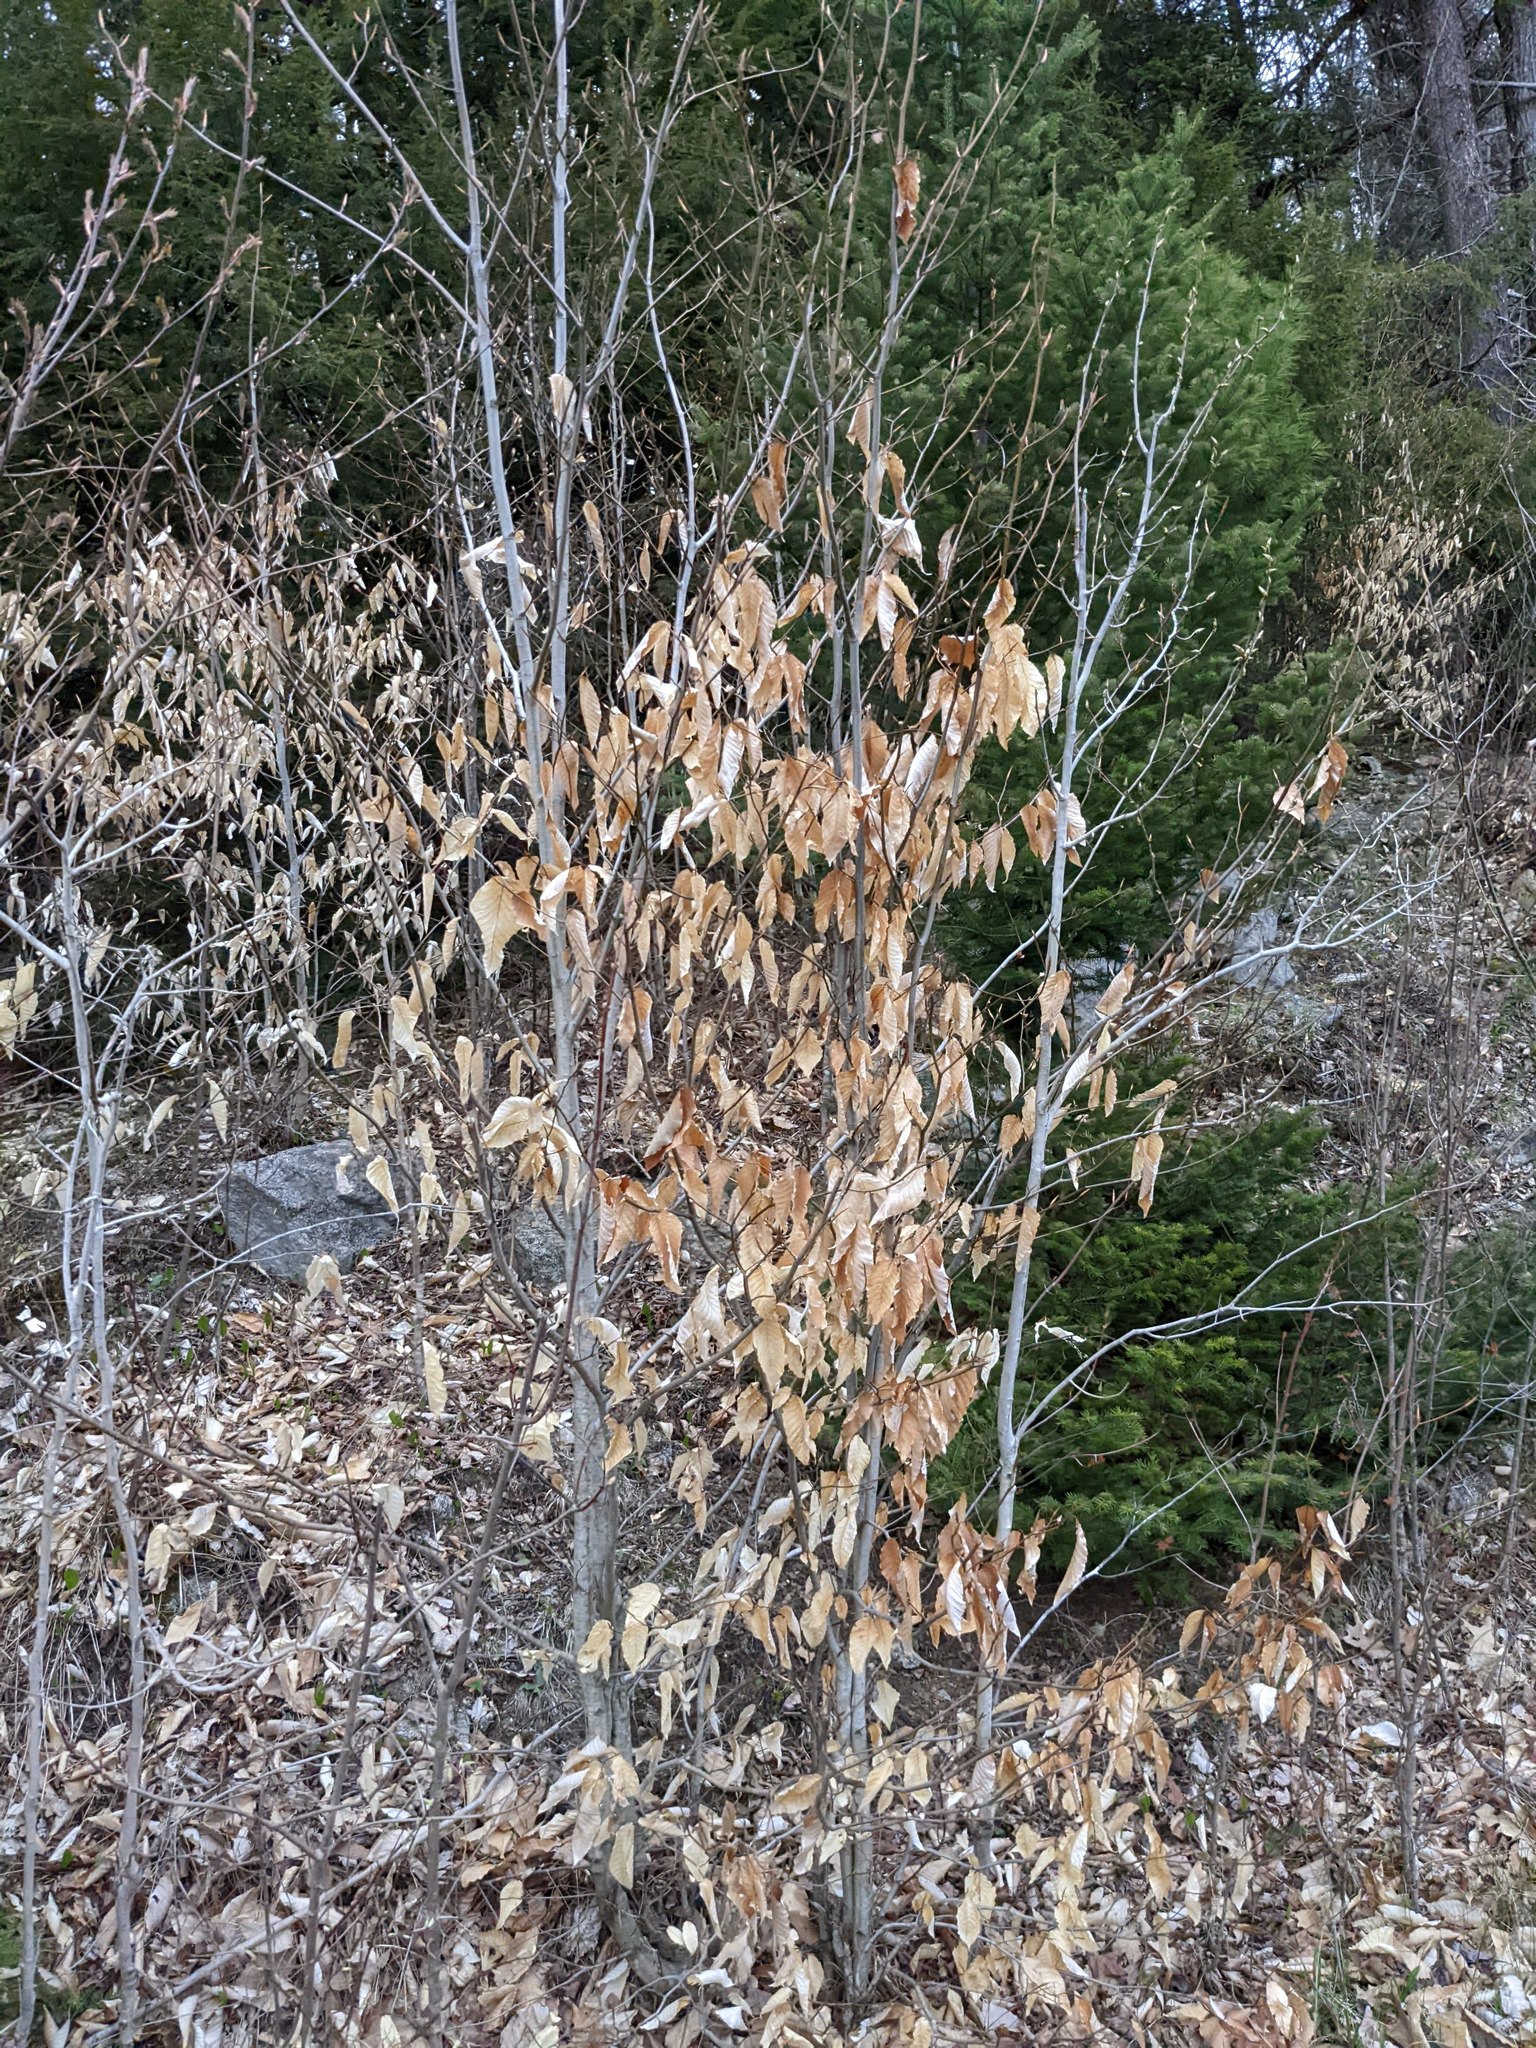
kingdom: Plantae
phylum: Tracheophyta
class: Magnoliopsida
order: Fagales
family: Fagaceae
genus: Fagus
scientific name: Fagus grandifolia
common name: American beech
